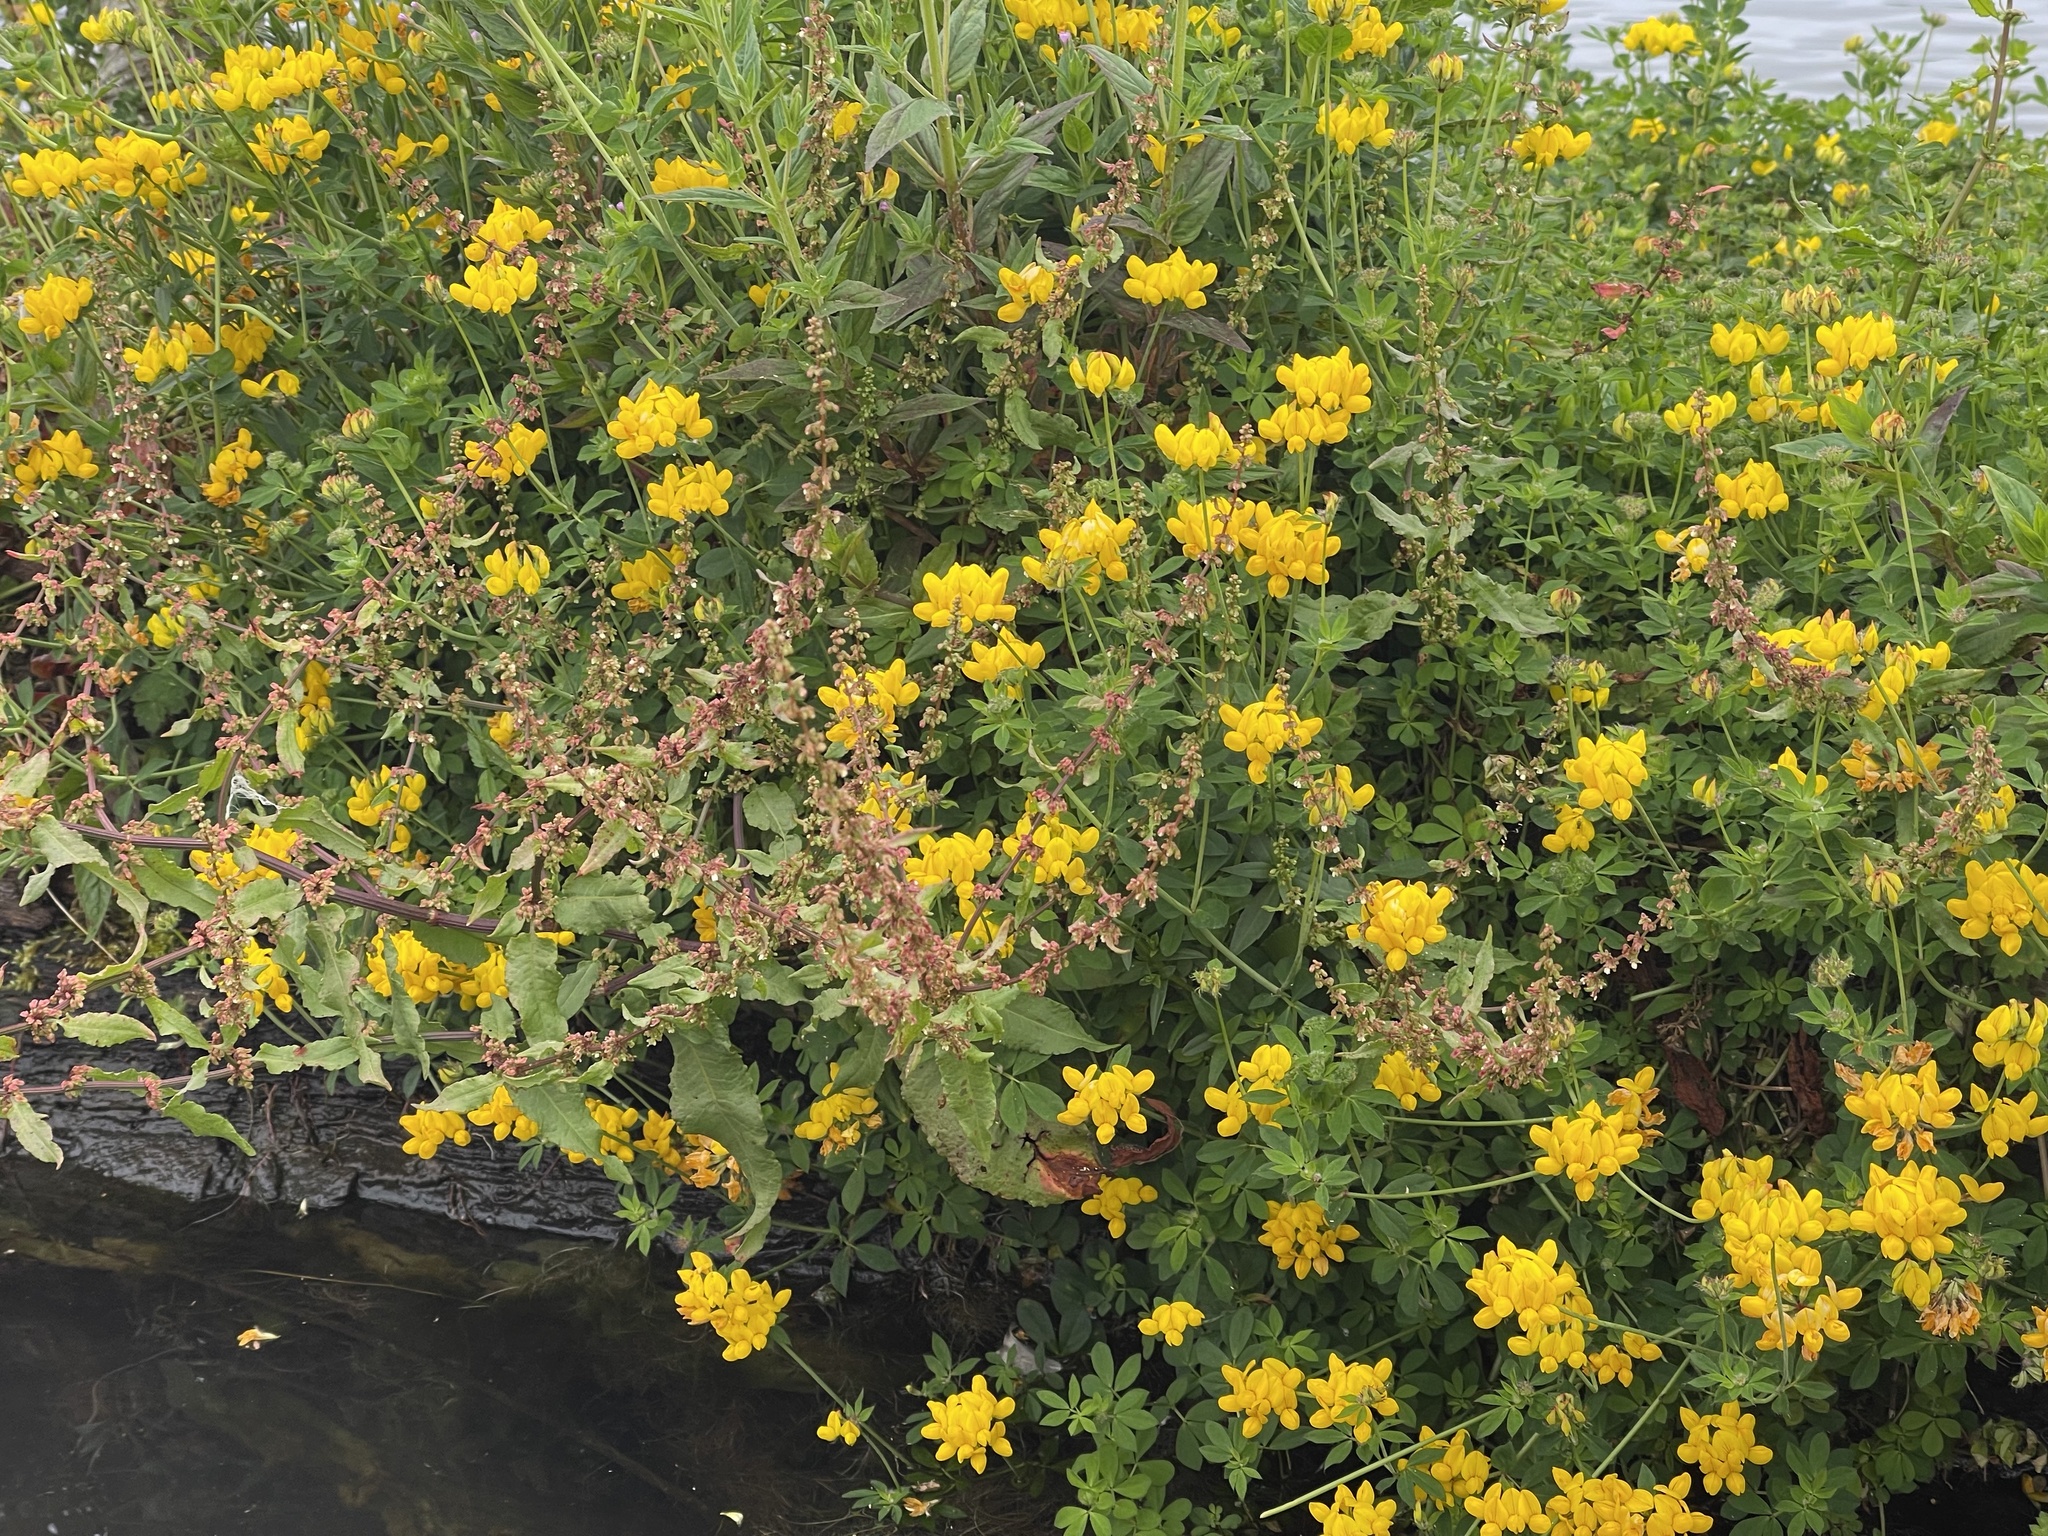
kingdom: Plantae
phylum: Tracheophyta
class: Magnoliopsida
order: Fabales
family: Fabaceae
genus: Lotus
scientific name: Lotus pedunculatus
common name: Greater birdsfoot-trefoil
